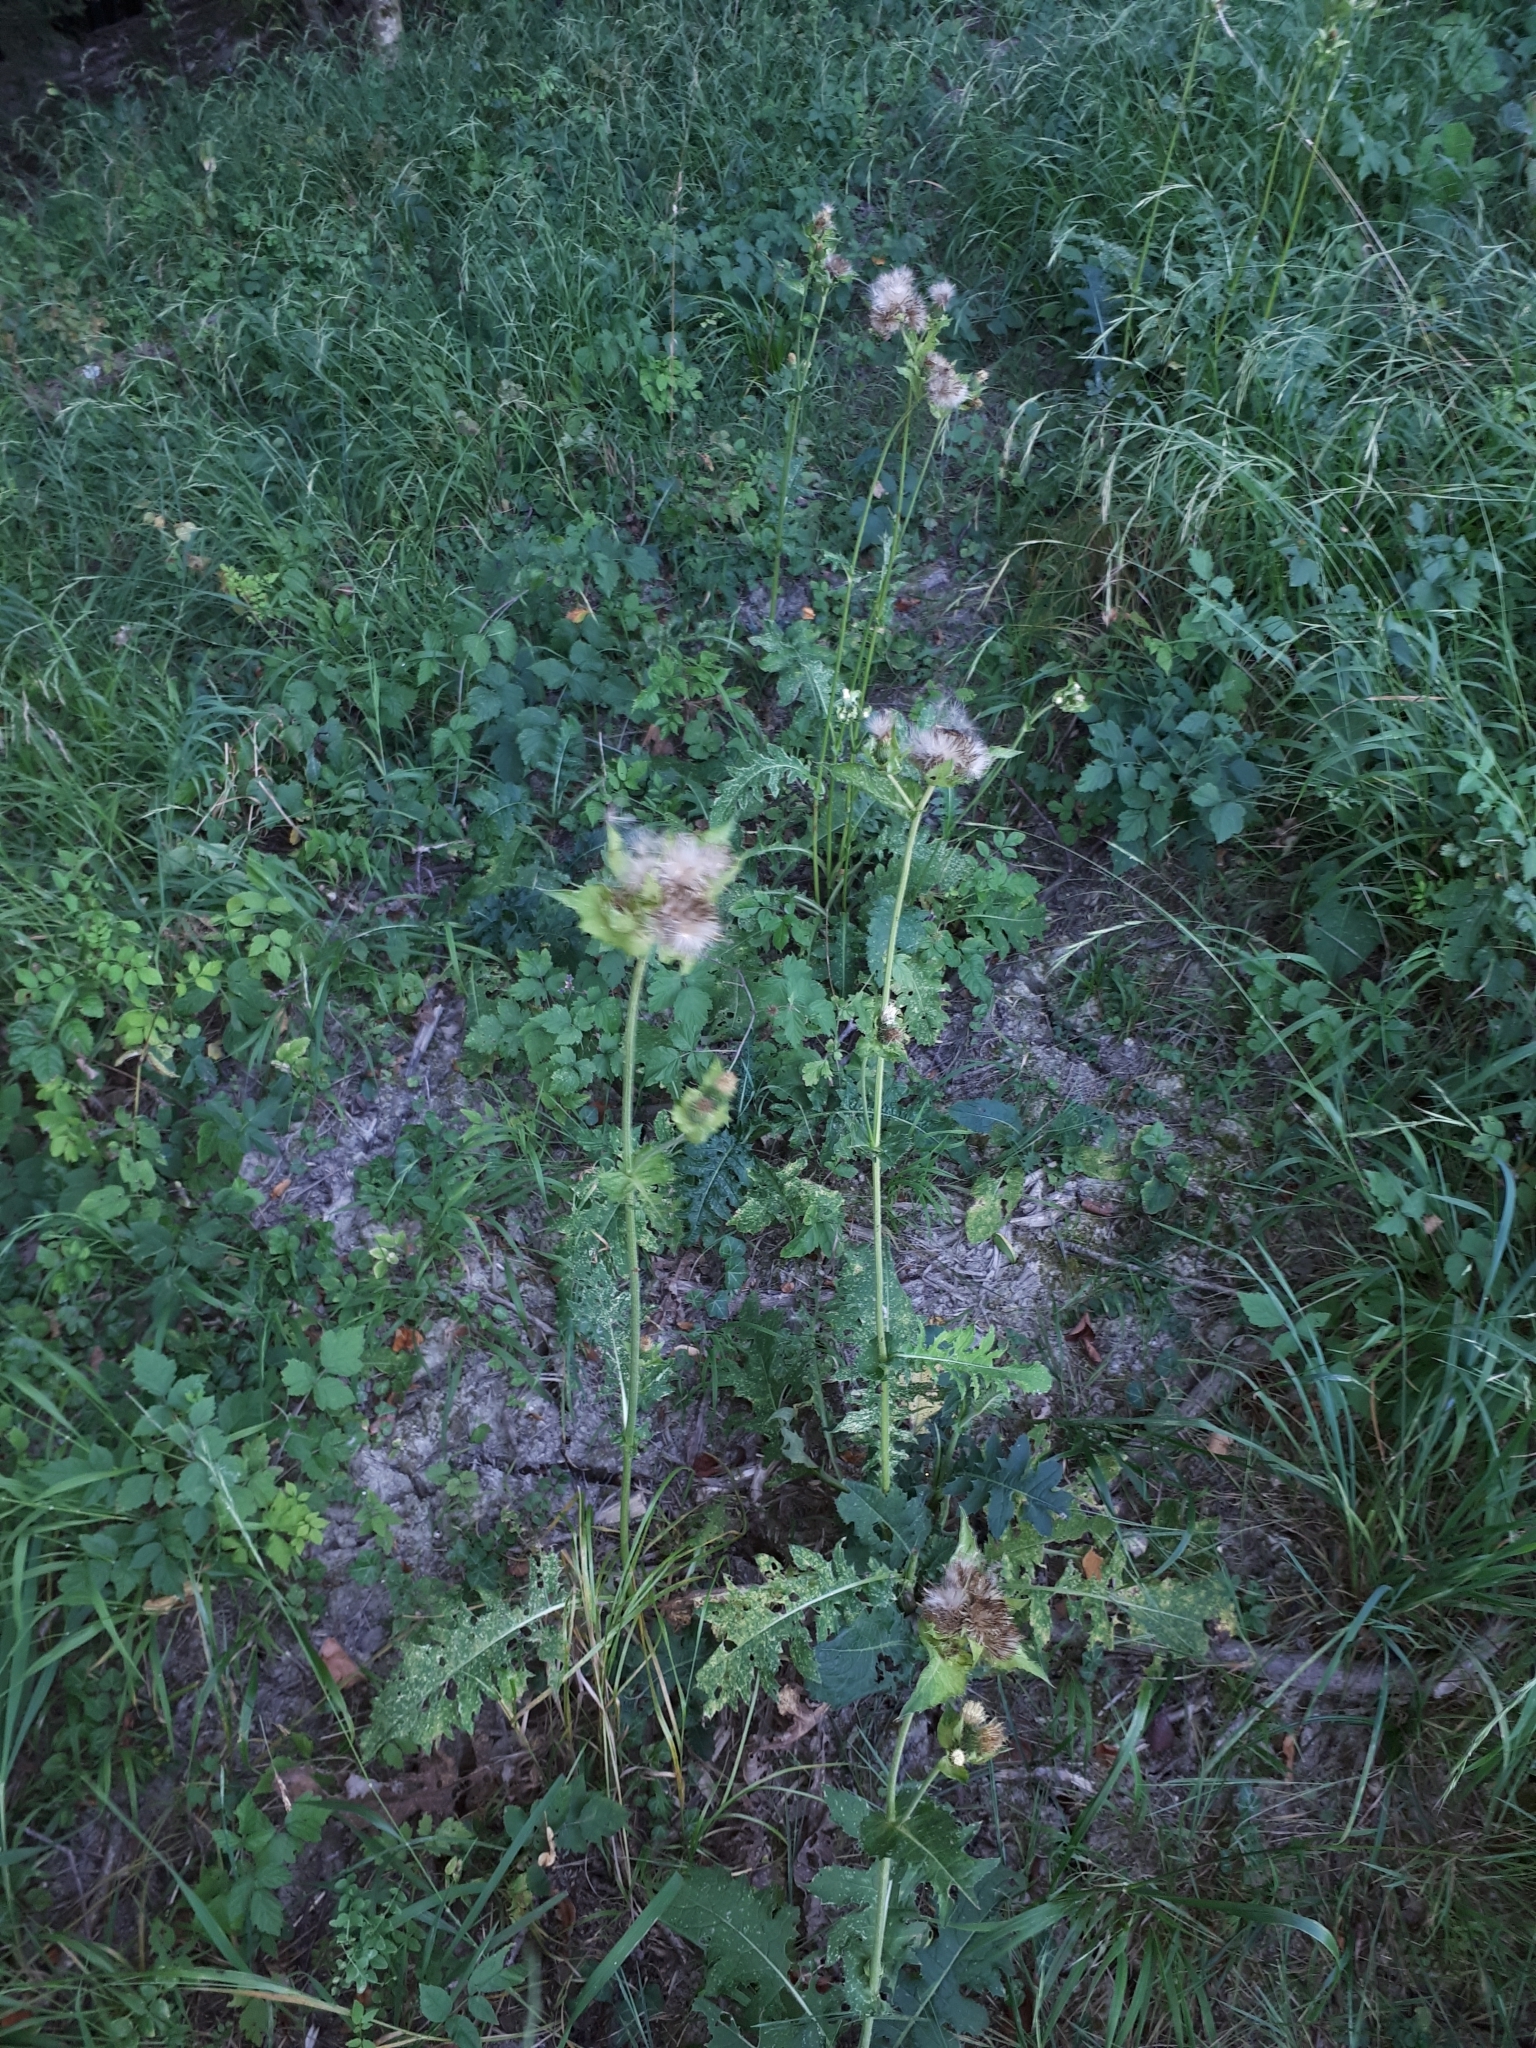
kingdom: Plantae
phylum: Tracheophyta
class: Magnoliopsida
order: Asterales
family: Asteraceae
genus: Cirsium
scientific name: Cirsium oleraceum
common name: Cabbage thistle
